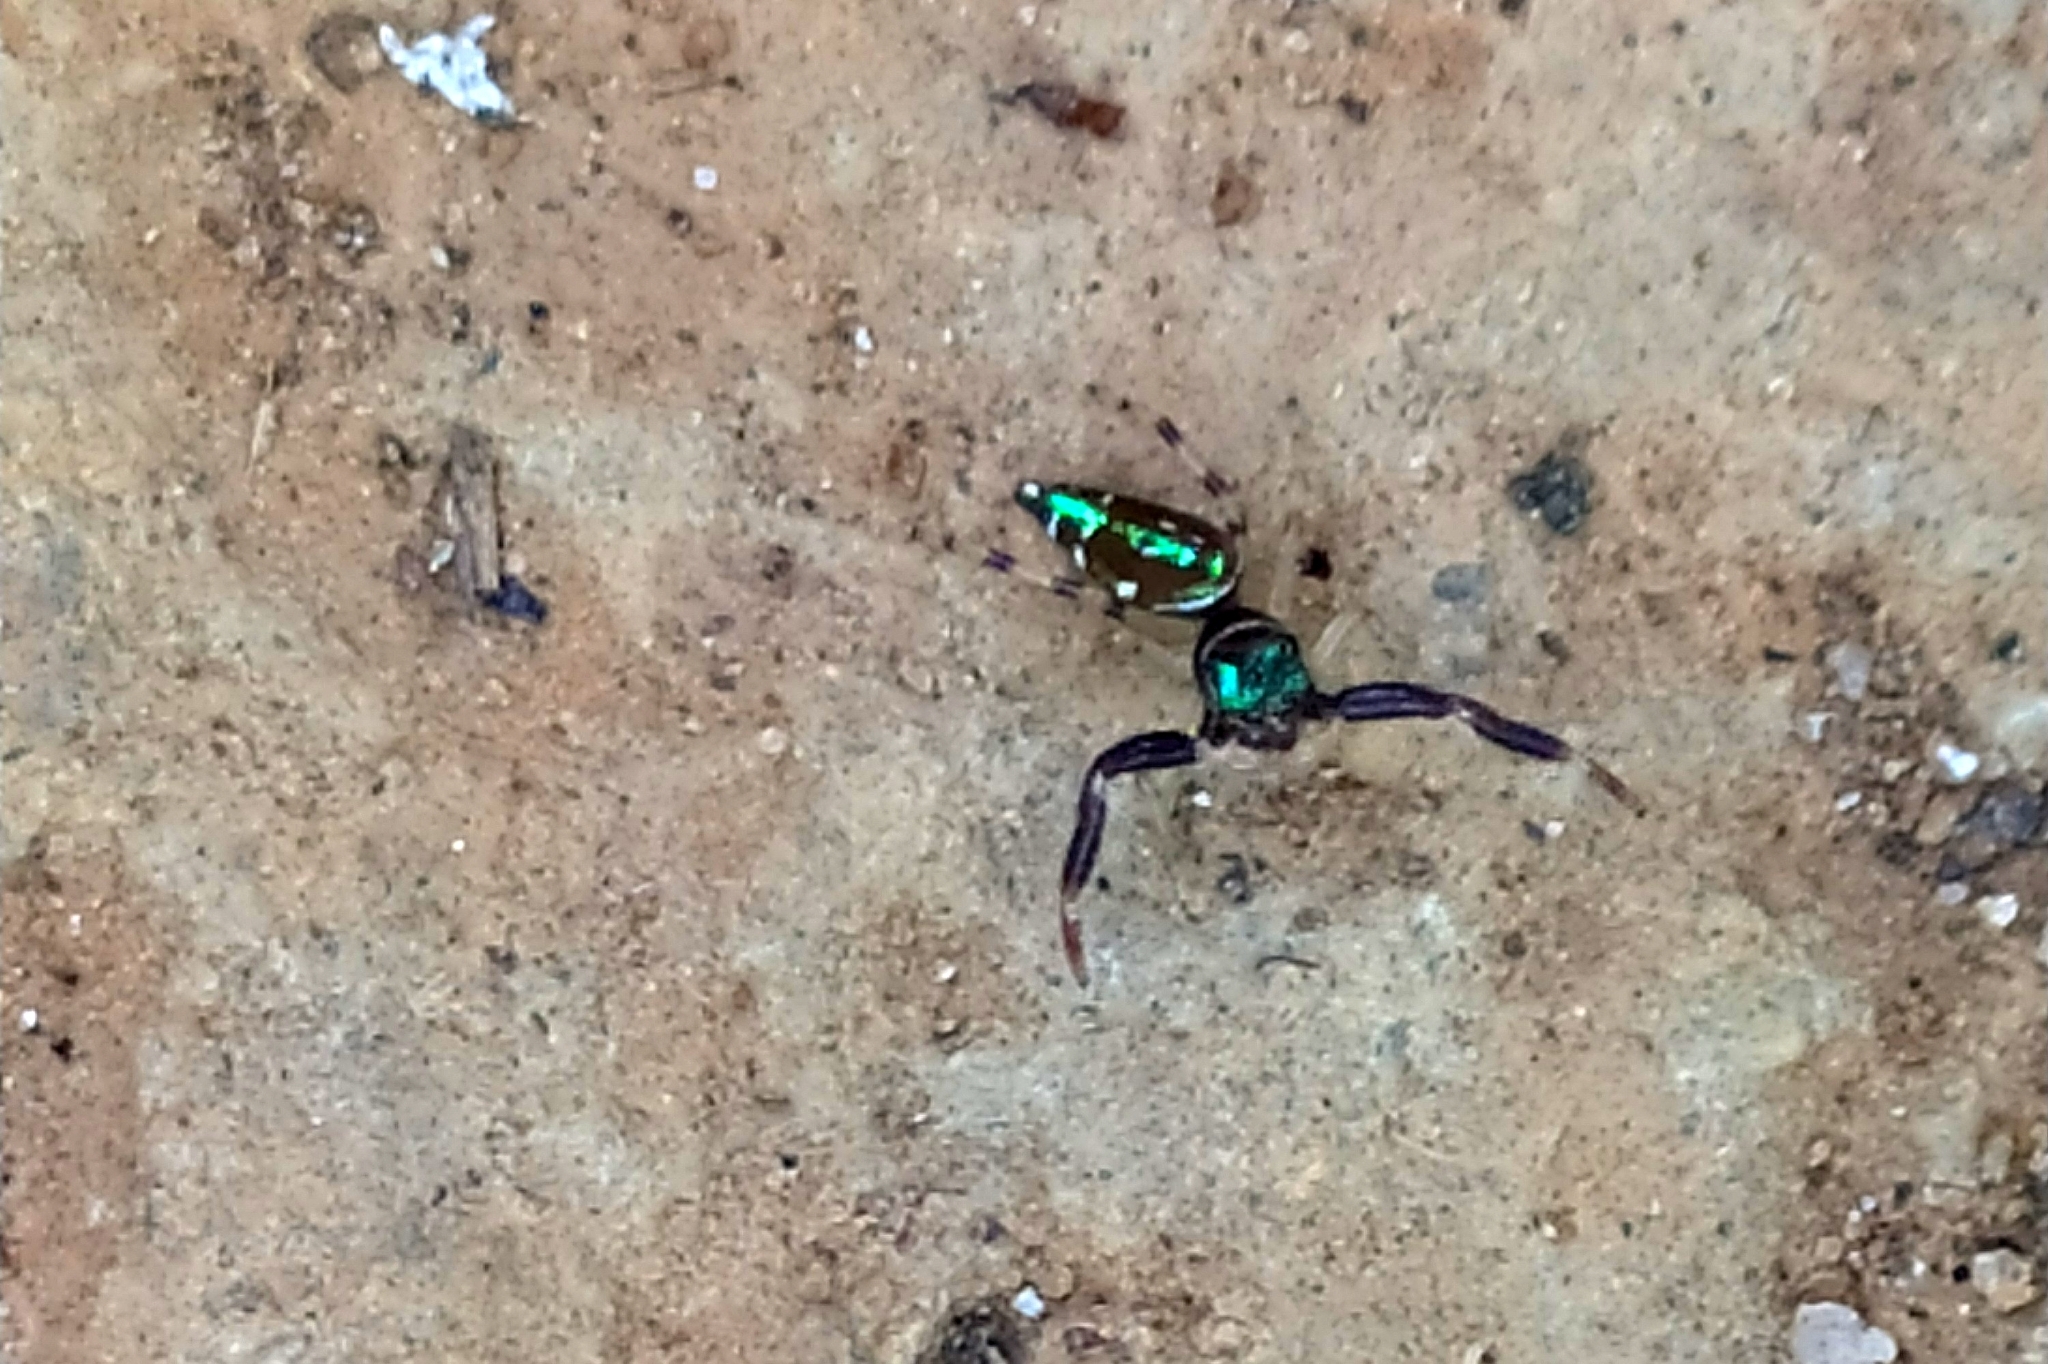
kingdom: Animalia
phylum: Arthropoda
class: Arachnida
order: Araneae
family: Salticidae
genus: Lurio
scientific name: Lurio
